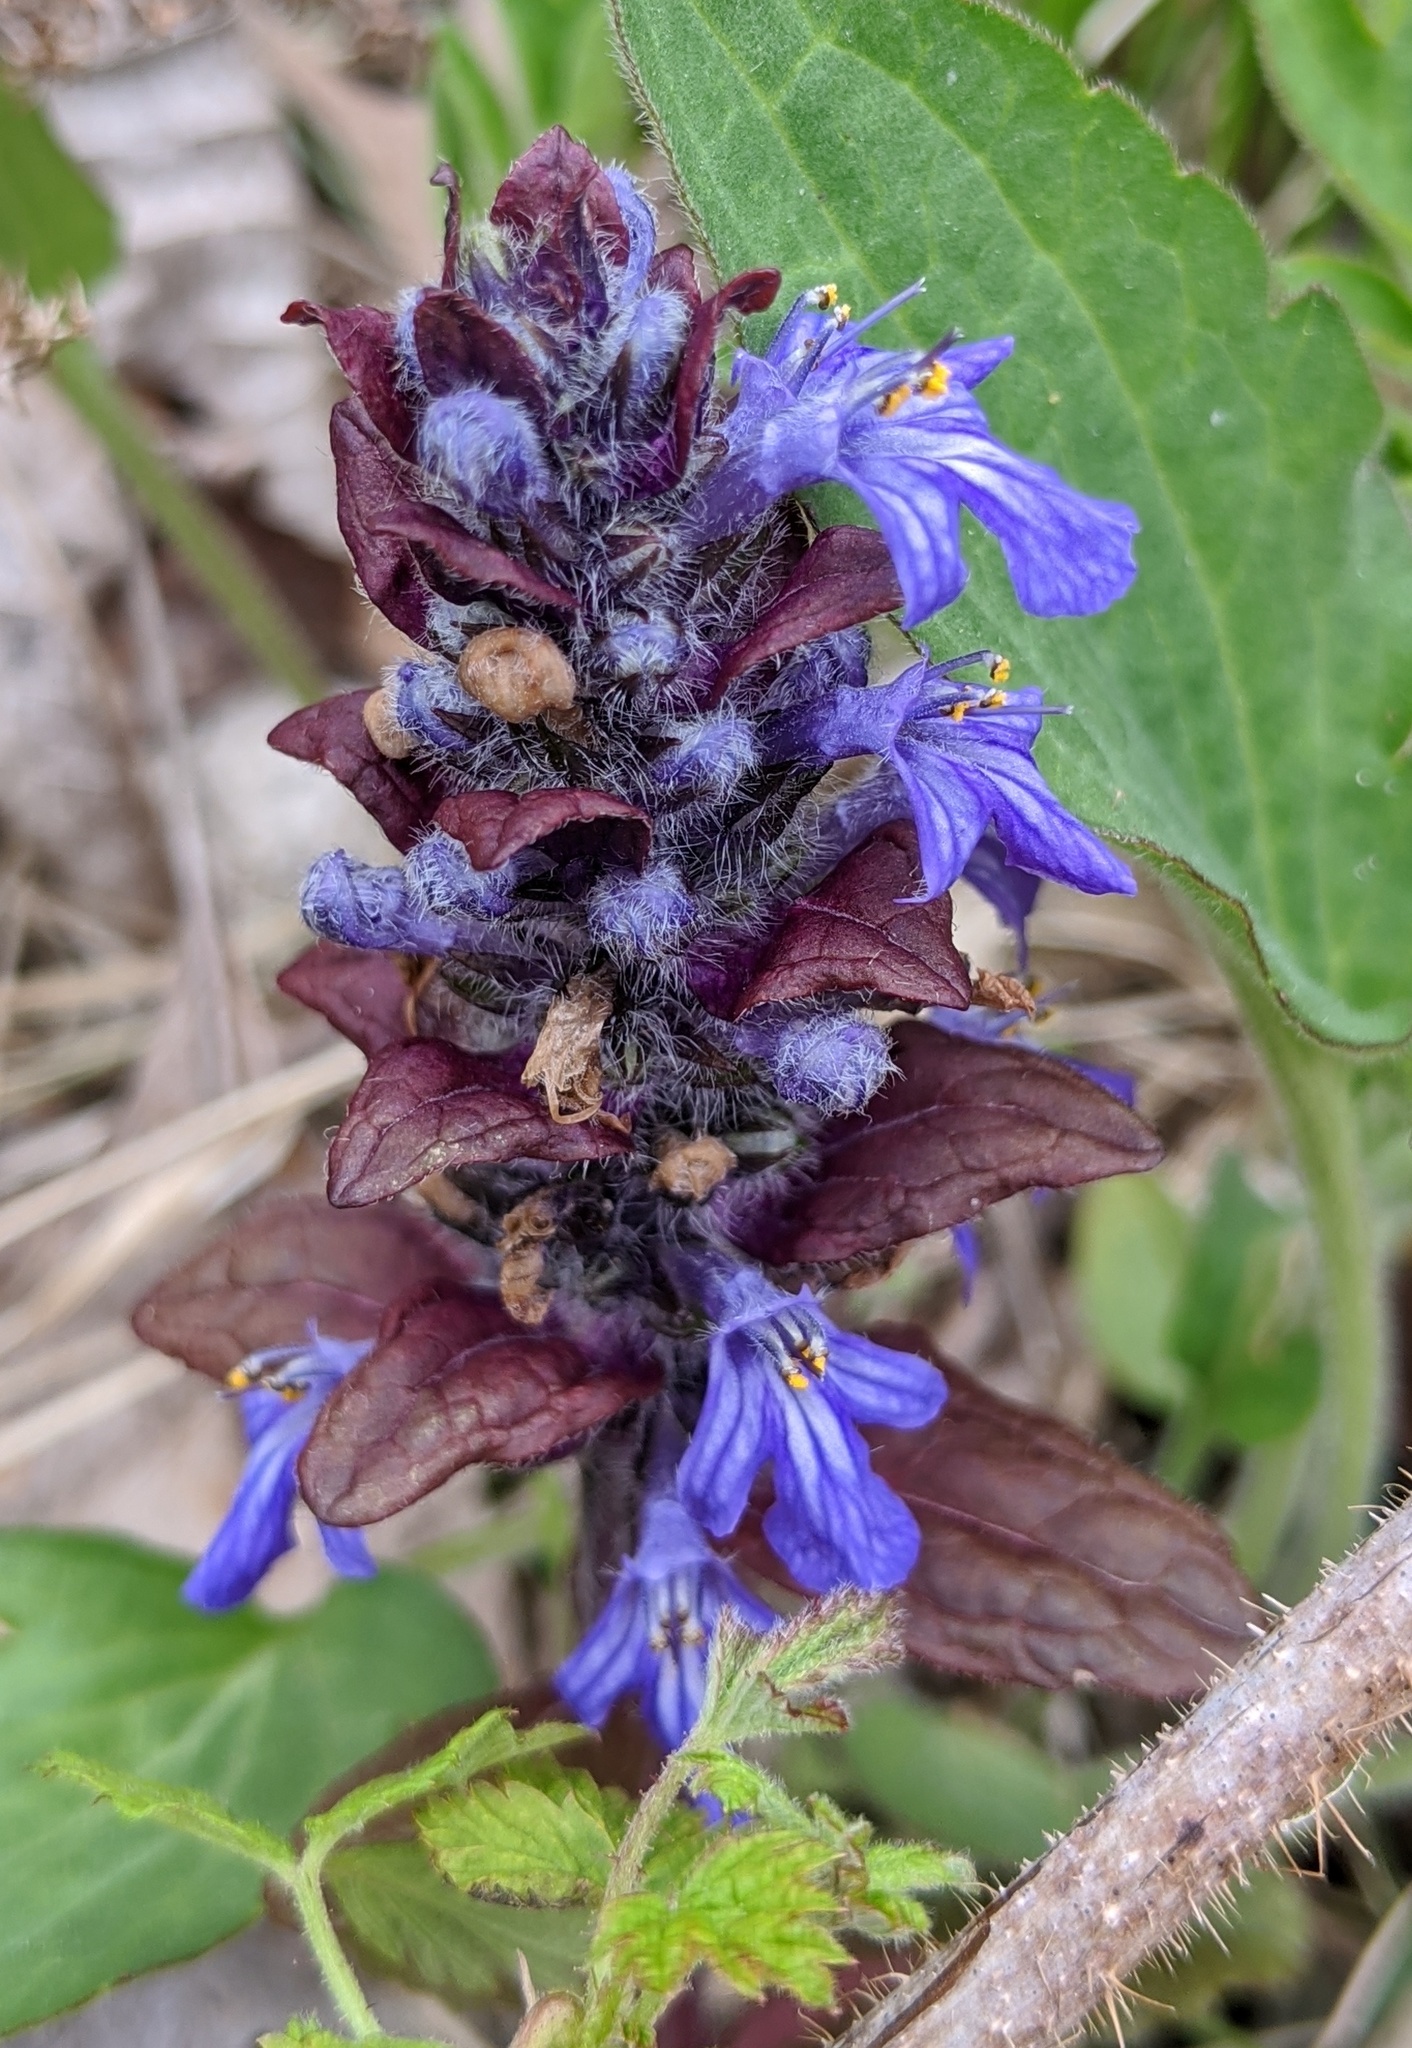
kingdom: Plantae
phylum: Tracheophyta
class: Magnoliopsida
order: Lamiales
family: Lamiaceae
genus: Ajuga
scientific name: Ajuga reptans
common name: Bugle
